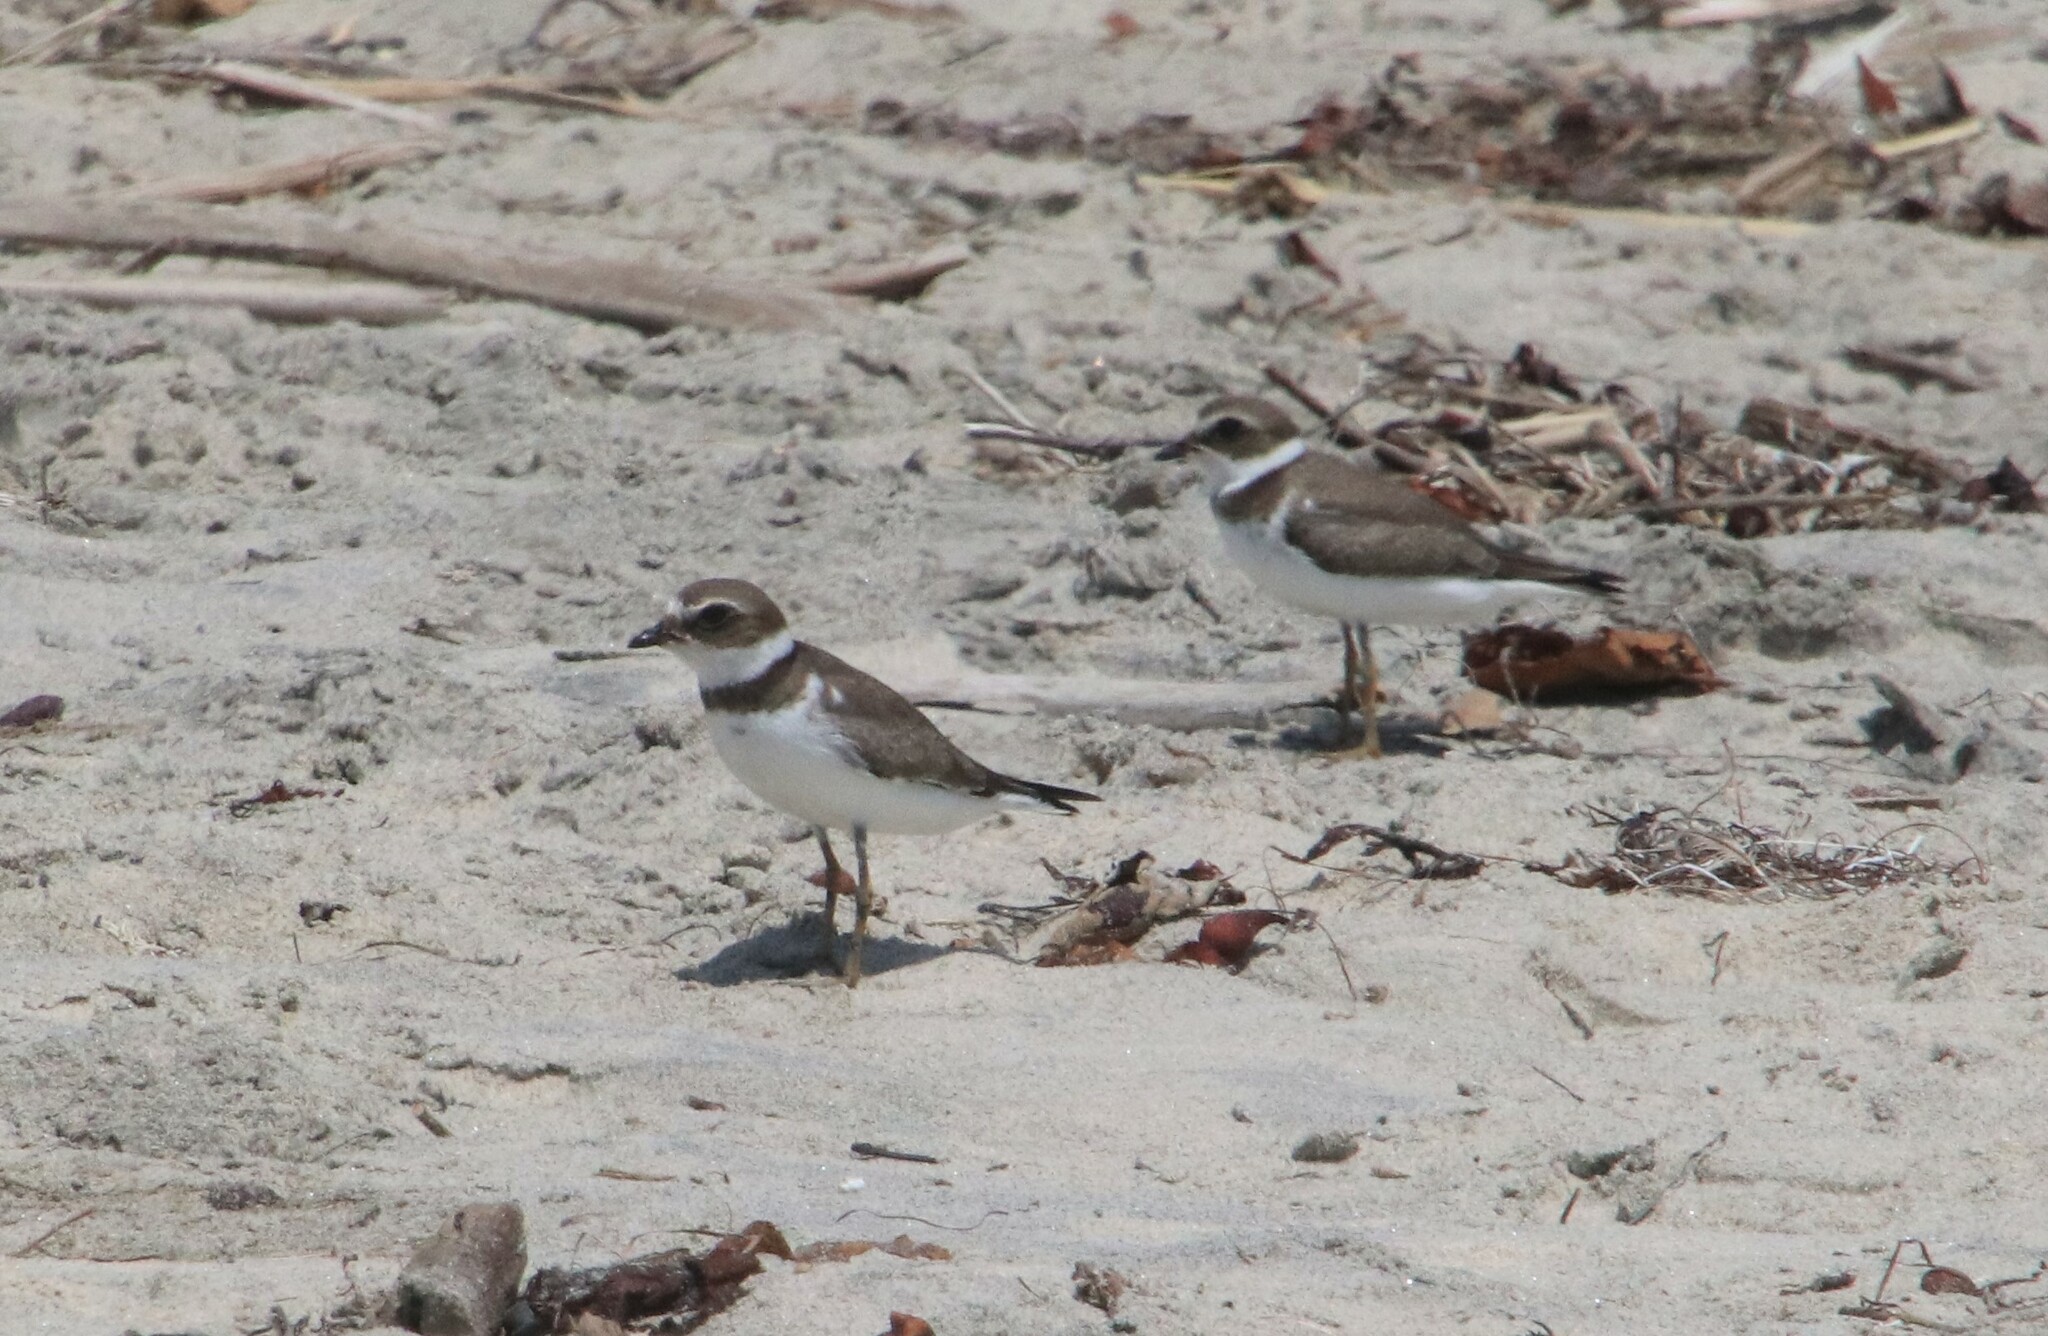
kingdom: Animalia
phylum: Chordata
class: Aves
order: Charadriiformes
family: Charadriidae
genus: Charadrius
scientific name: Charadrius semipalmatus
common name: Semipalmated plover
